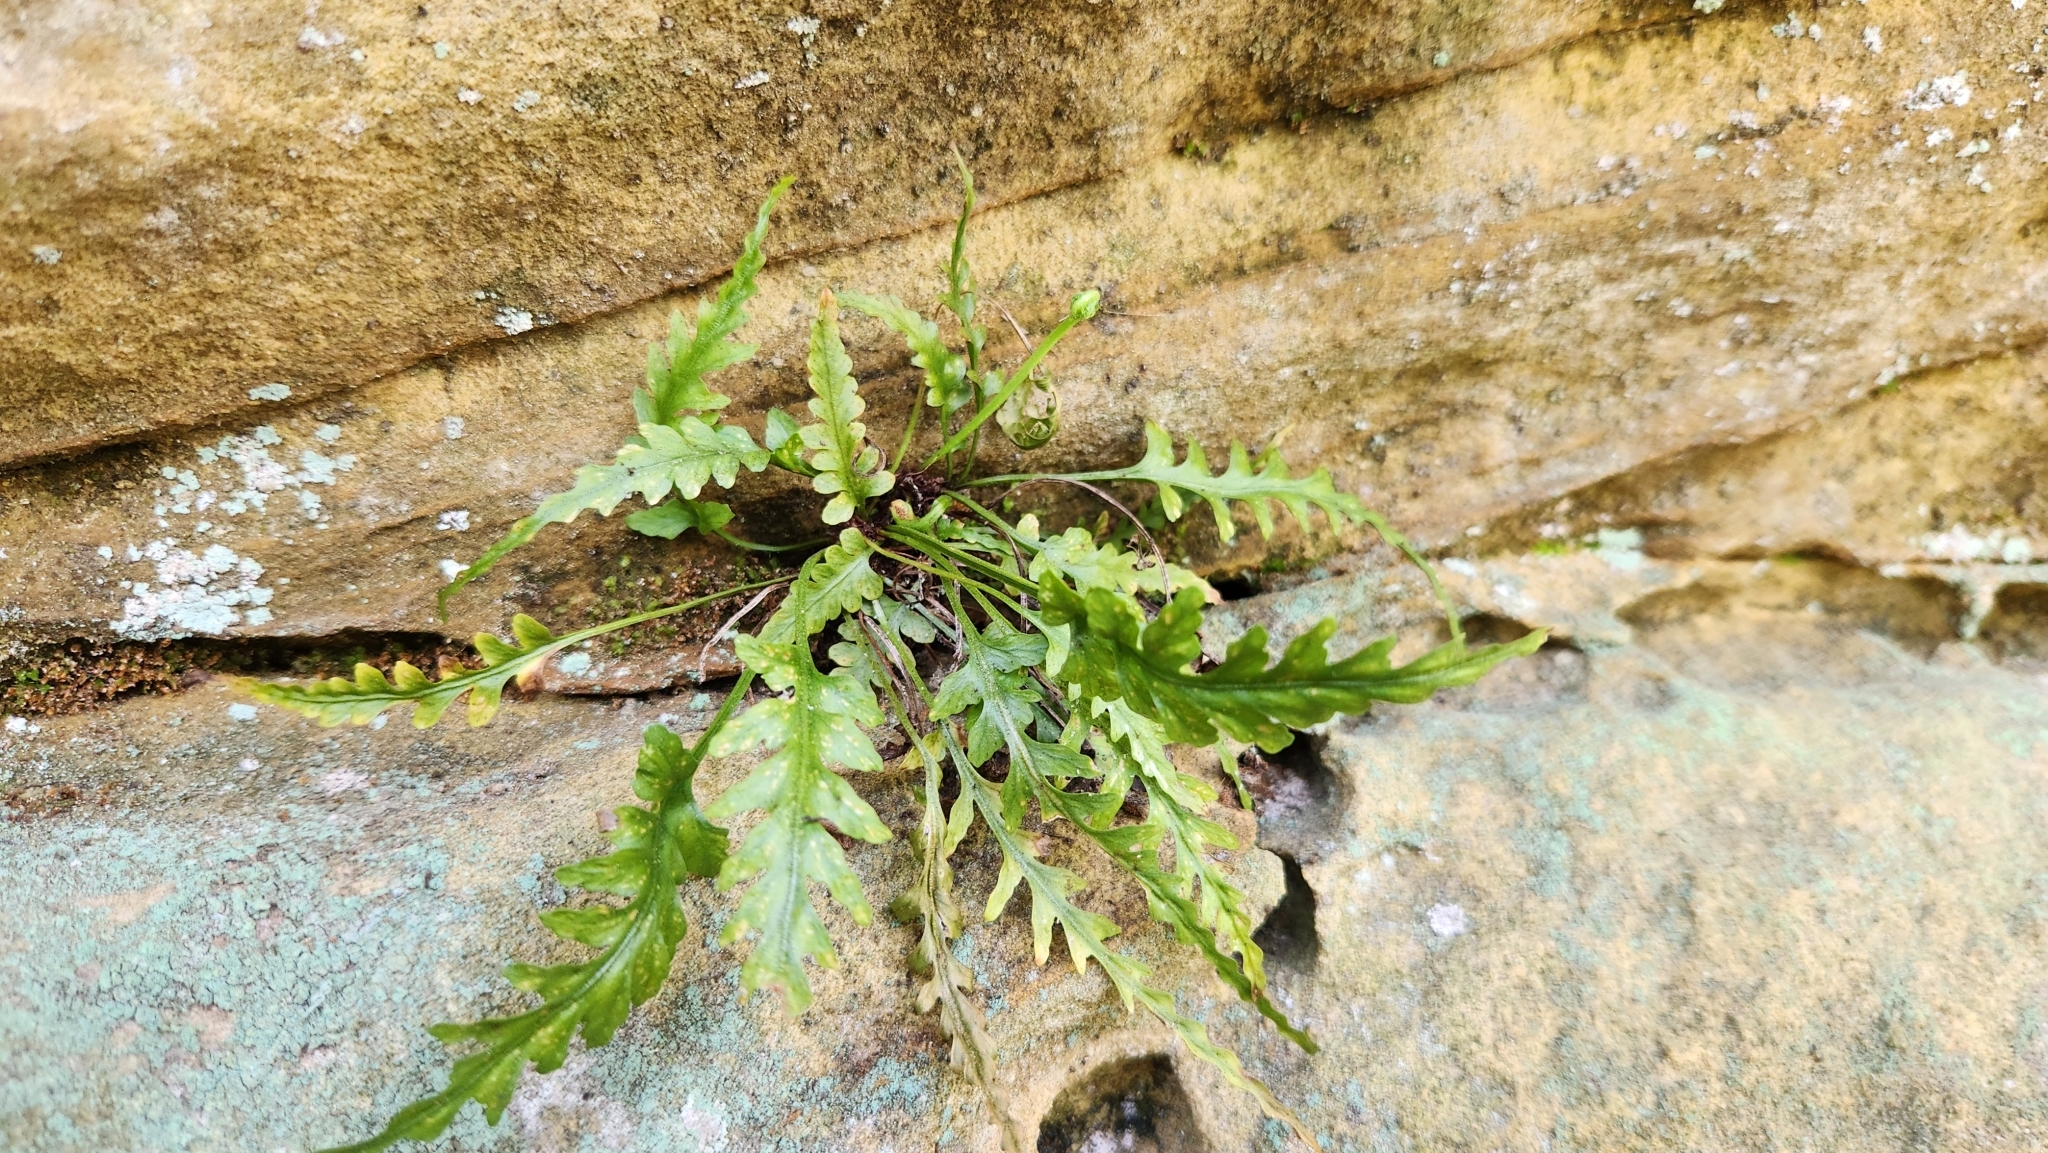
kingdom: Plantae
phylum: Tracheophyta
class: Polypodiopsida
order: Polypodiales
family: Aspleniaceae
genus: Asplenium
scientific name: Asplenium pinnatifidum
